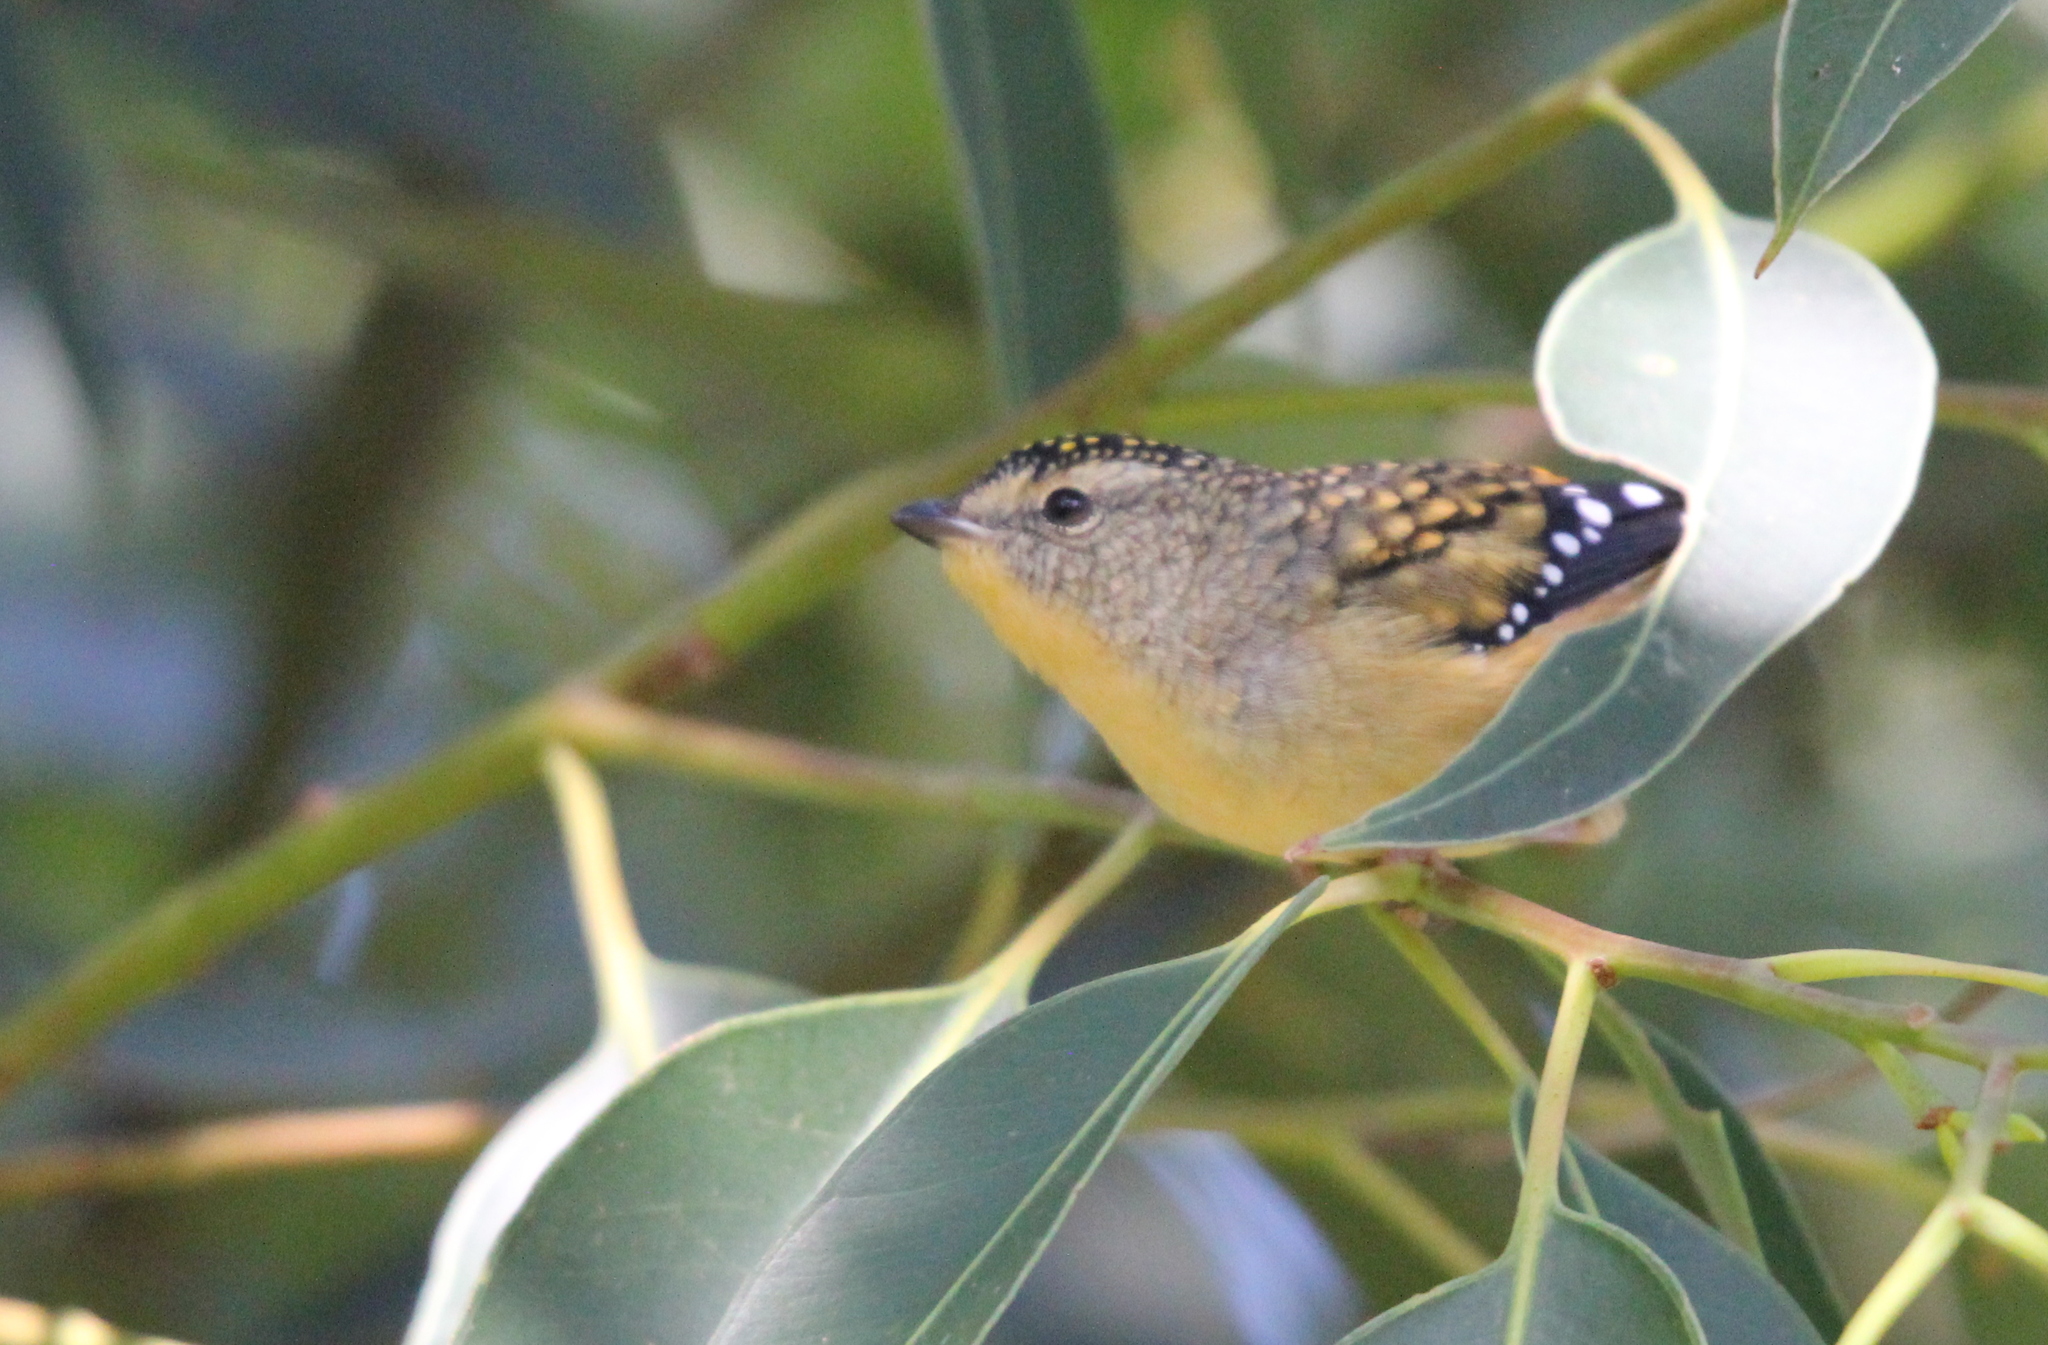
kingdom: Animalia
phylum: Chordata
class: Aves
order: Passeriformes
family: Pardalotidae
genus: Pardalotus
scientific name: Pardalotus punctatus
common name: Spotted pardalote
